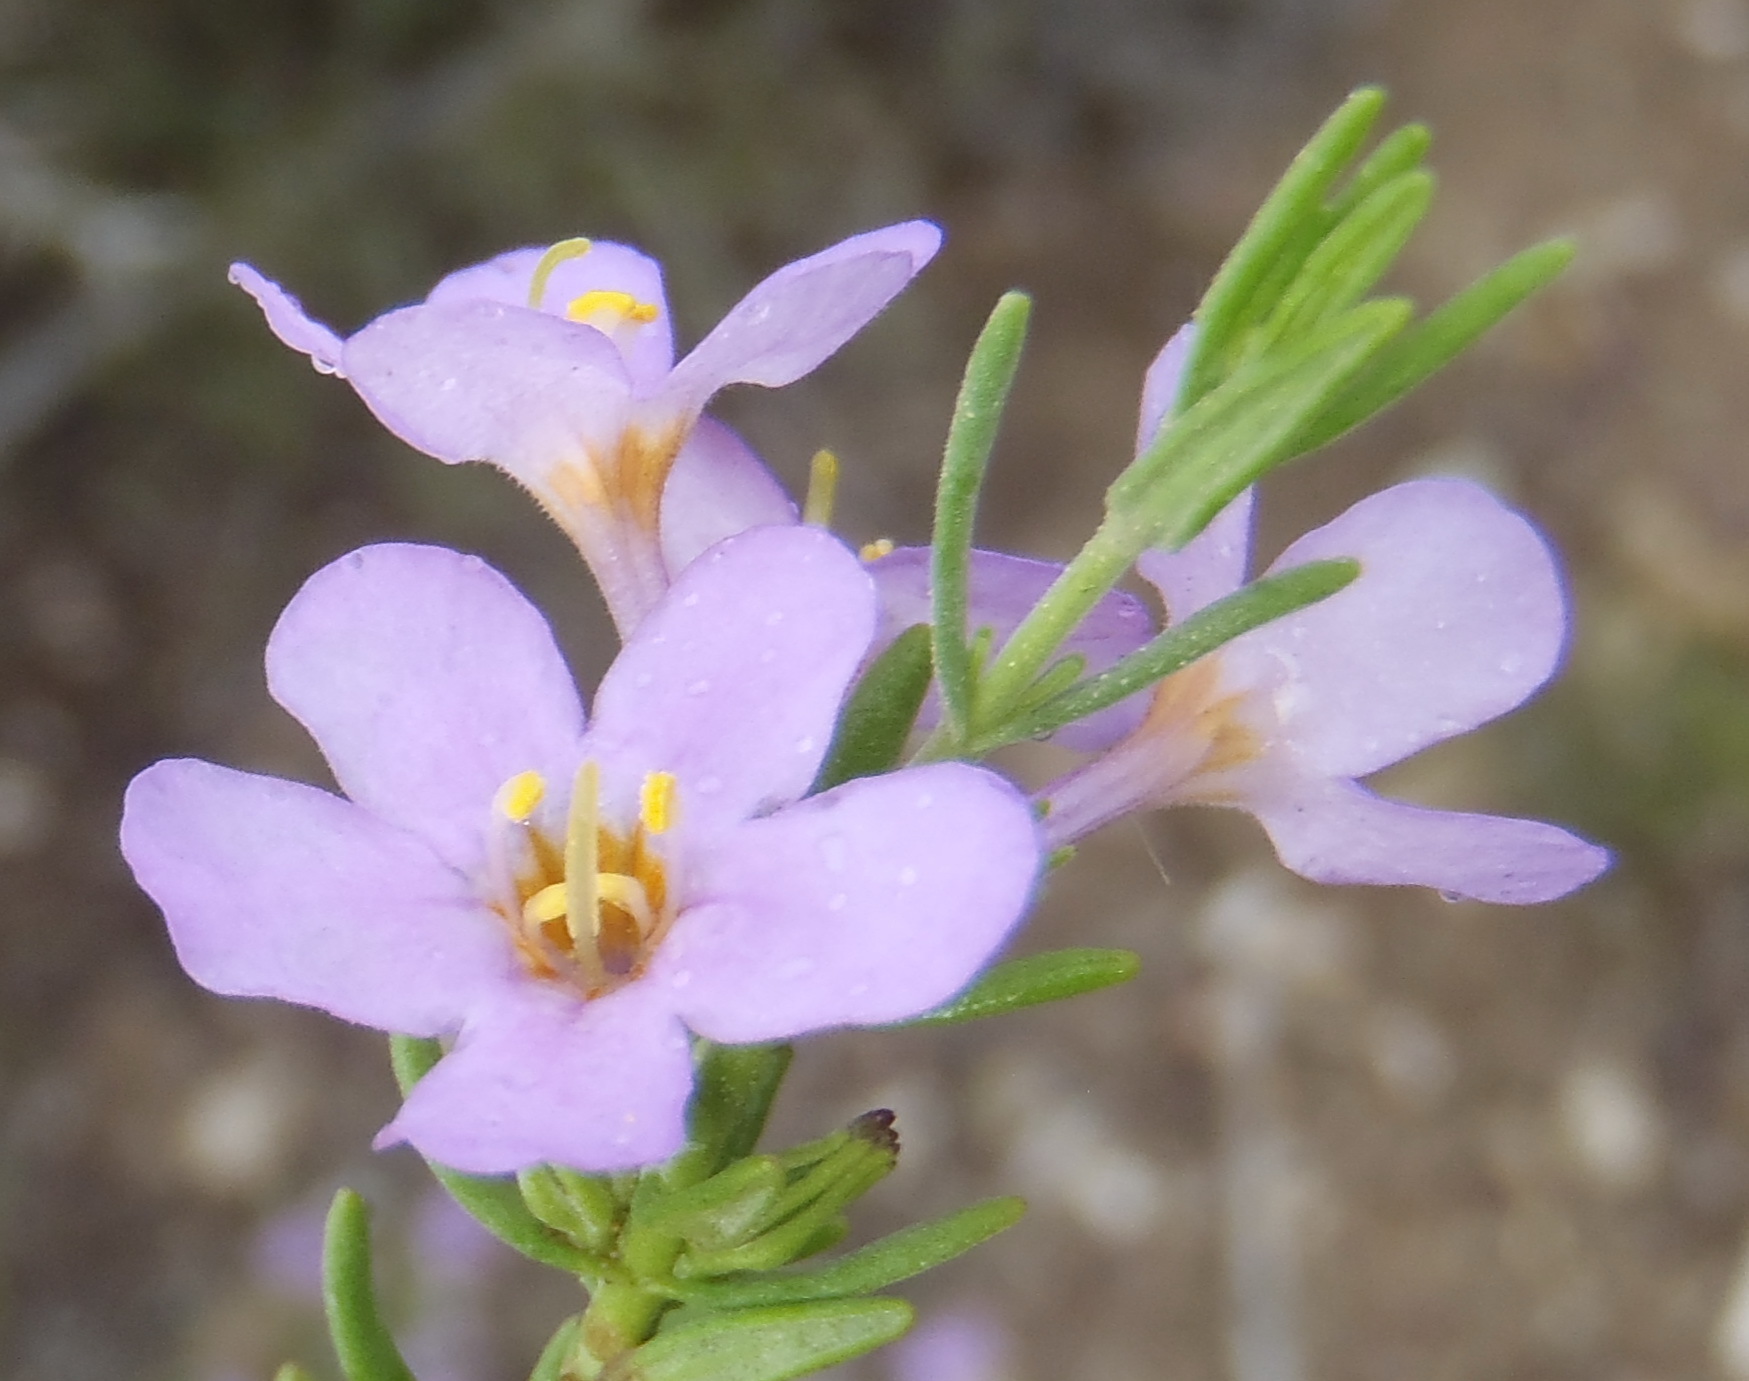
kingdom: Plantae
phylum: Tracheophyta
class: Magnoliopsida
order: Lamiales
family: Scrophulariaceae
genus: Chaenostoma
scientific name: Chaenostoma subnudum
